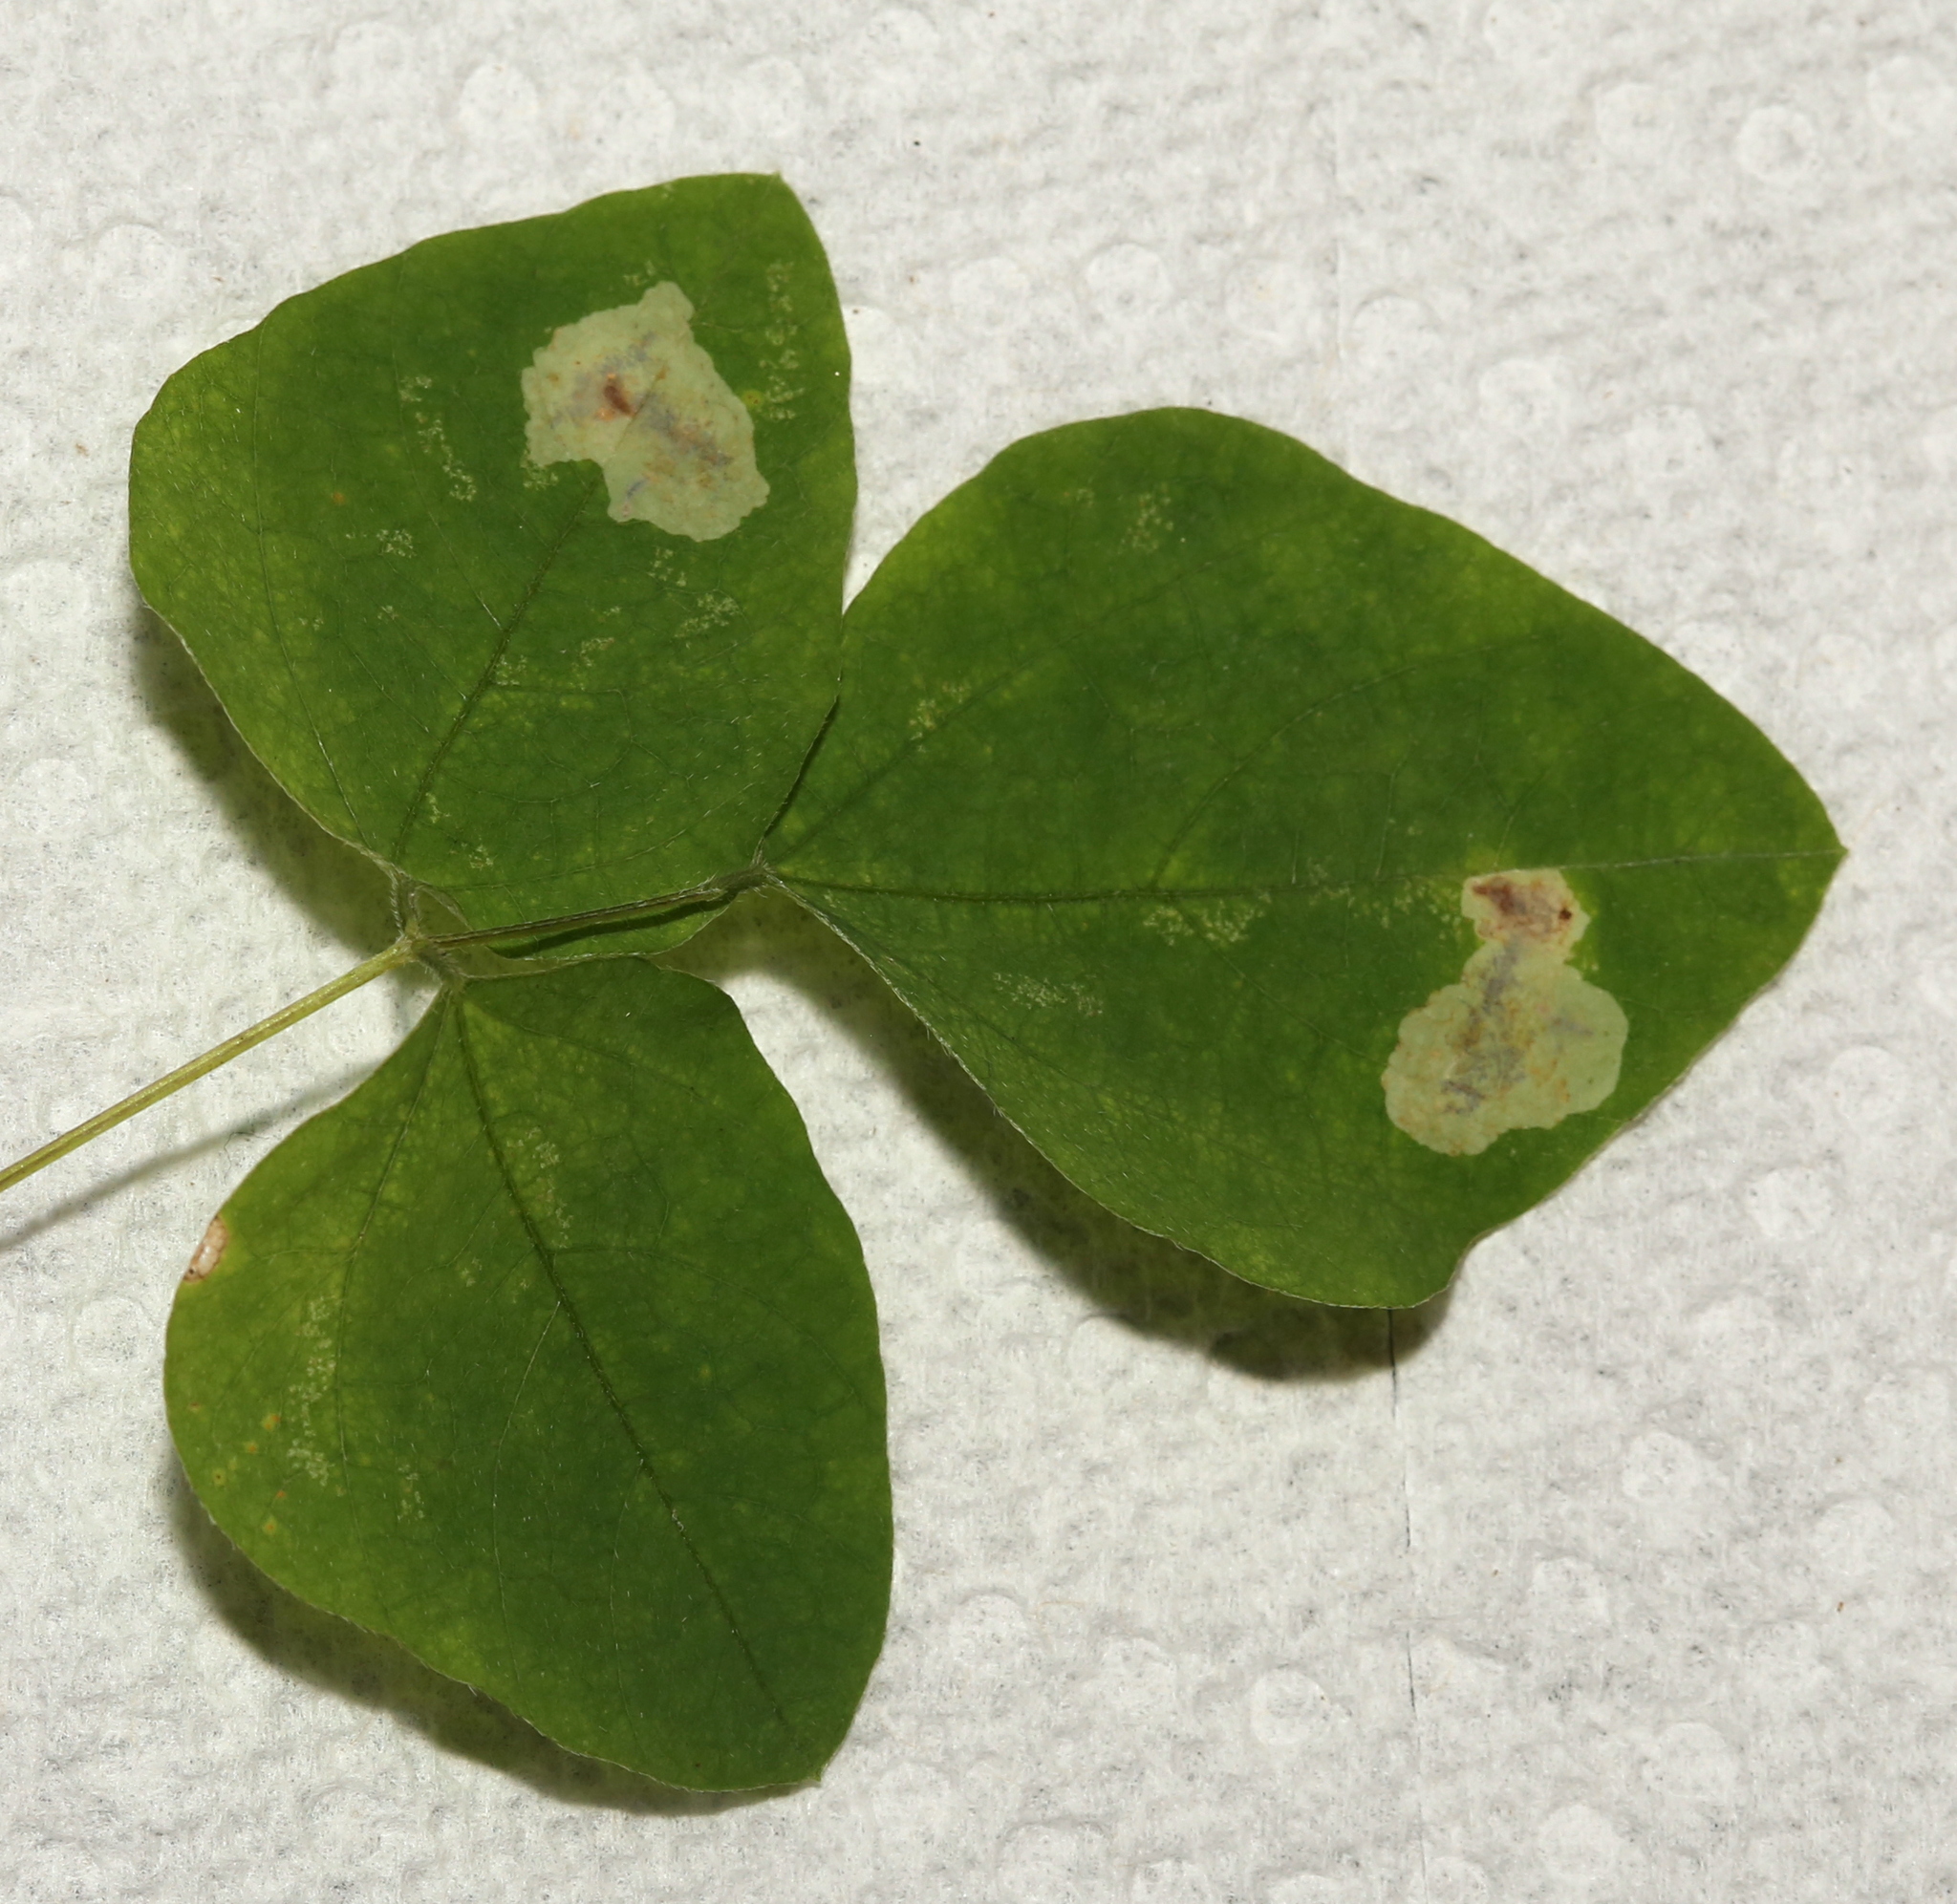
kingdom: Animalia
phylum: Arthropoda
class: Insecta
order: Lepidoptera
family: Gracillariidae
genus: Leucanthiza
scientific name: Leucanthiza amphicarpeaefoliella
